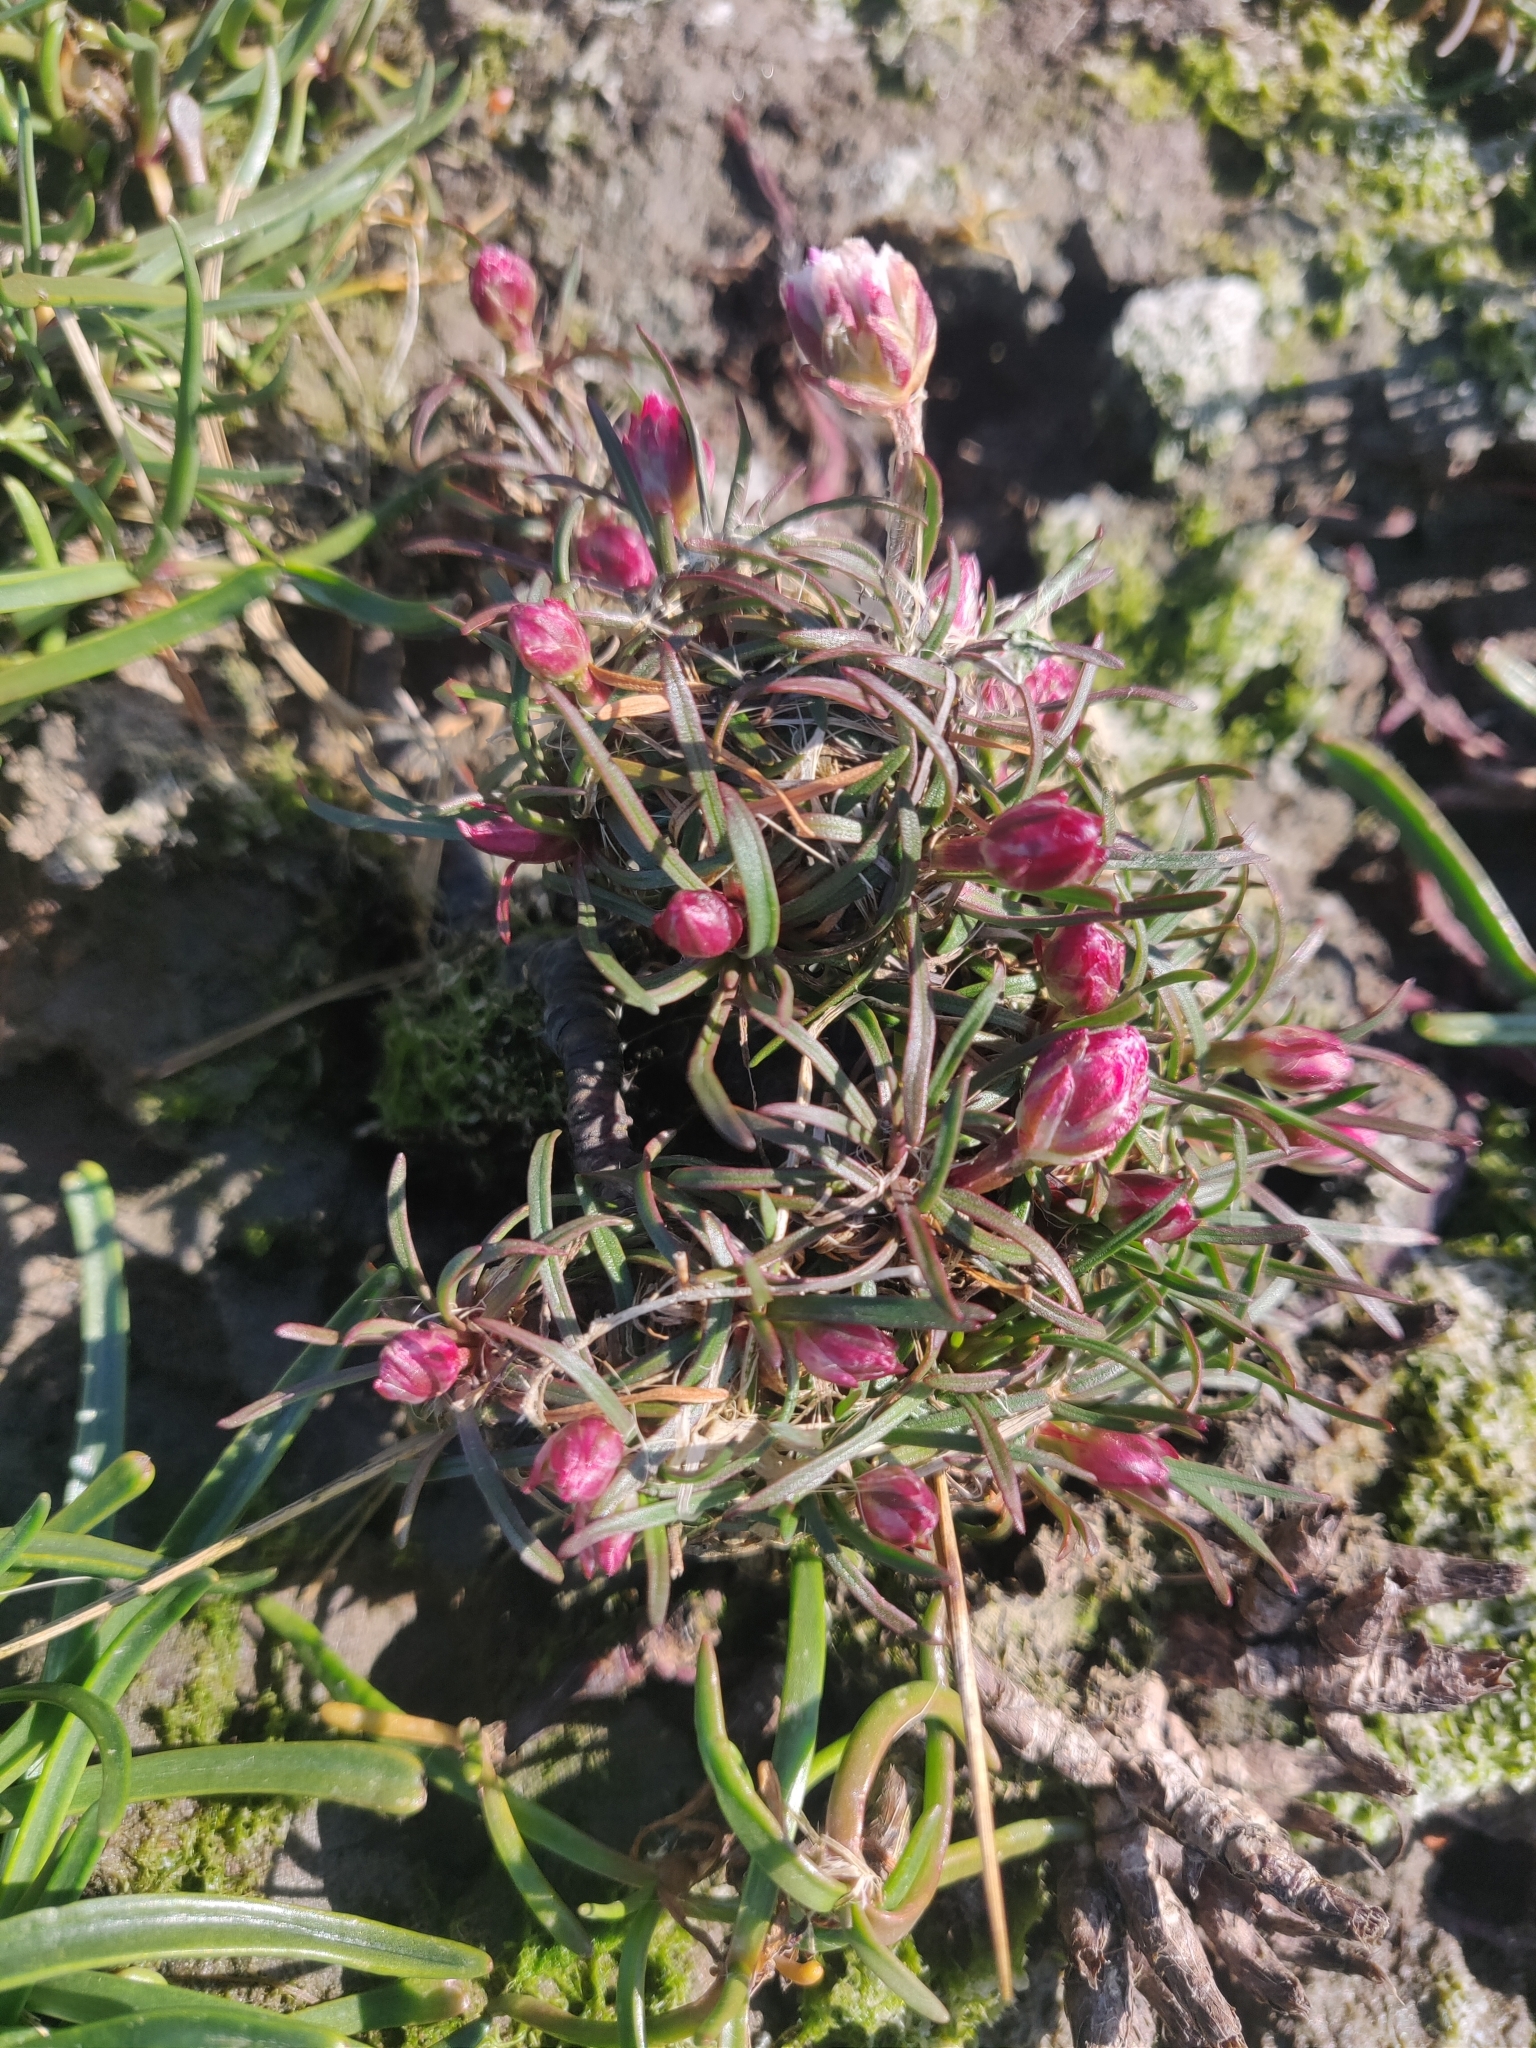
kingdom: Plantae
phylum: Tracheophyta
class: Magnoliopsida
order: Caryophyllales
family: Plumbaginaceae
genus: Armeria
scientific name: Armeria maritima
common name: Thrift
